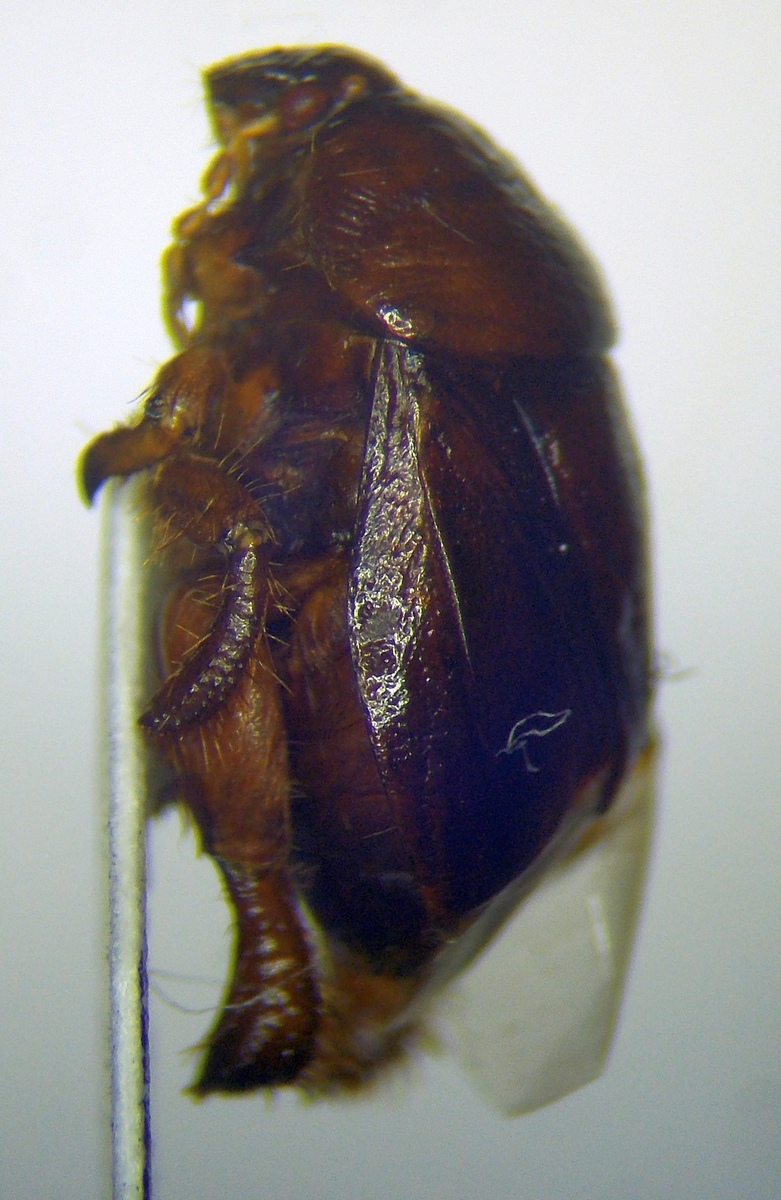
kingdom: Animalia
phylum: Arthropoda
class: Insecta
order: Hemiptera
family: Cydnidae
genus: Stibaropus
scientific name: Stibaropus henkei
